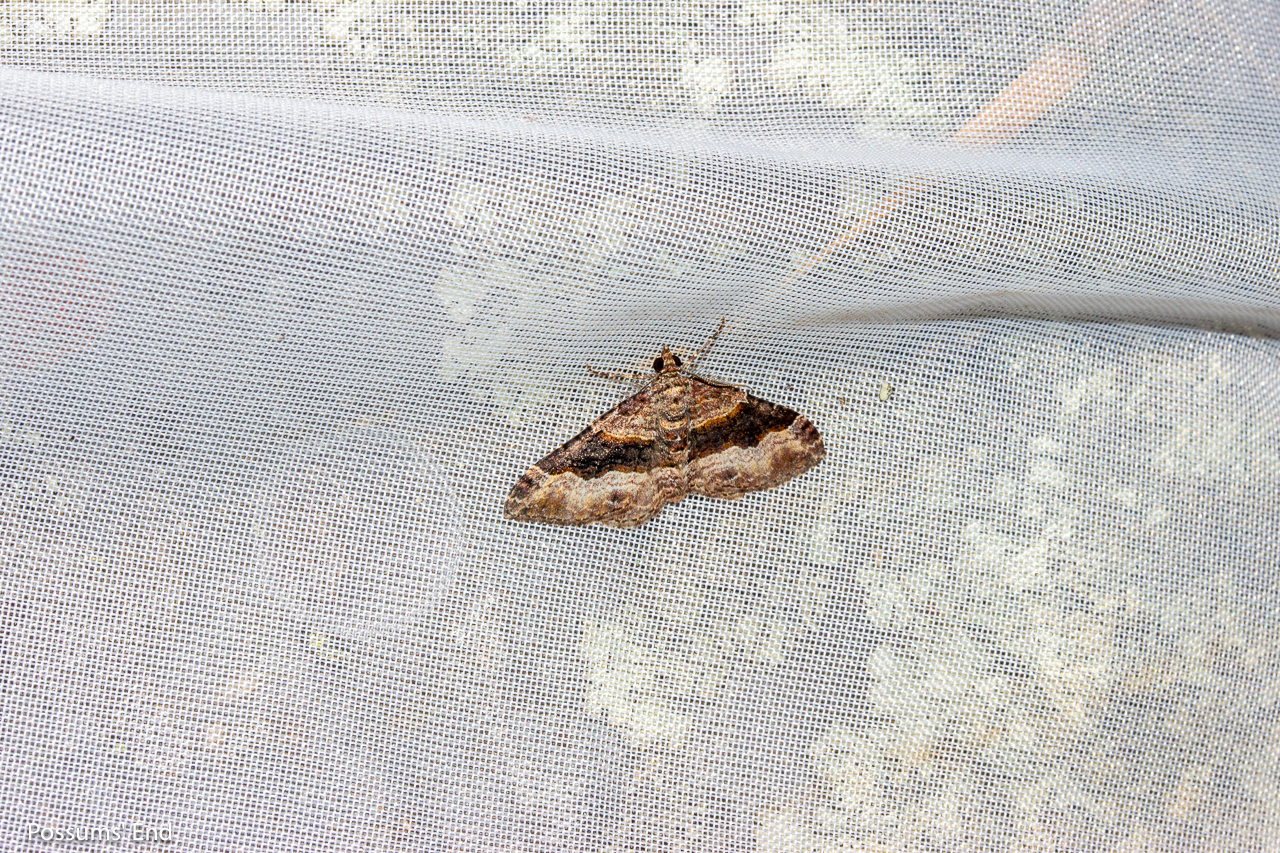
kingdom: Animalia
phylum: Arthropoda
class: Insecta
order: Lepidoptera
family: Geometridae
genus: Epyaxa
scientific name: Epyaxa lucidata
